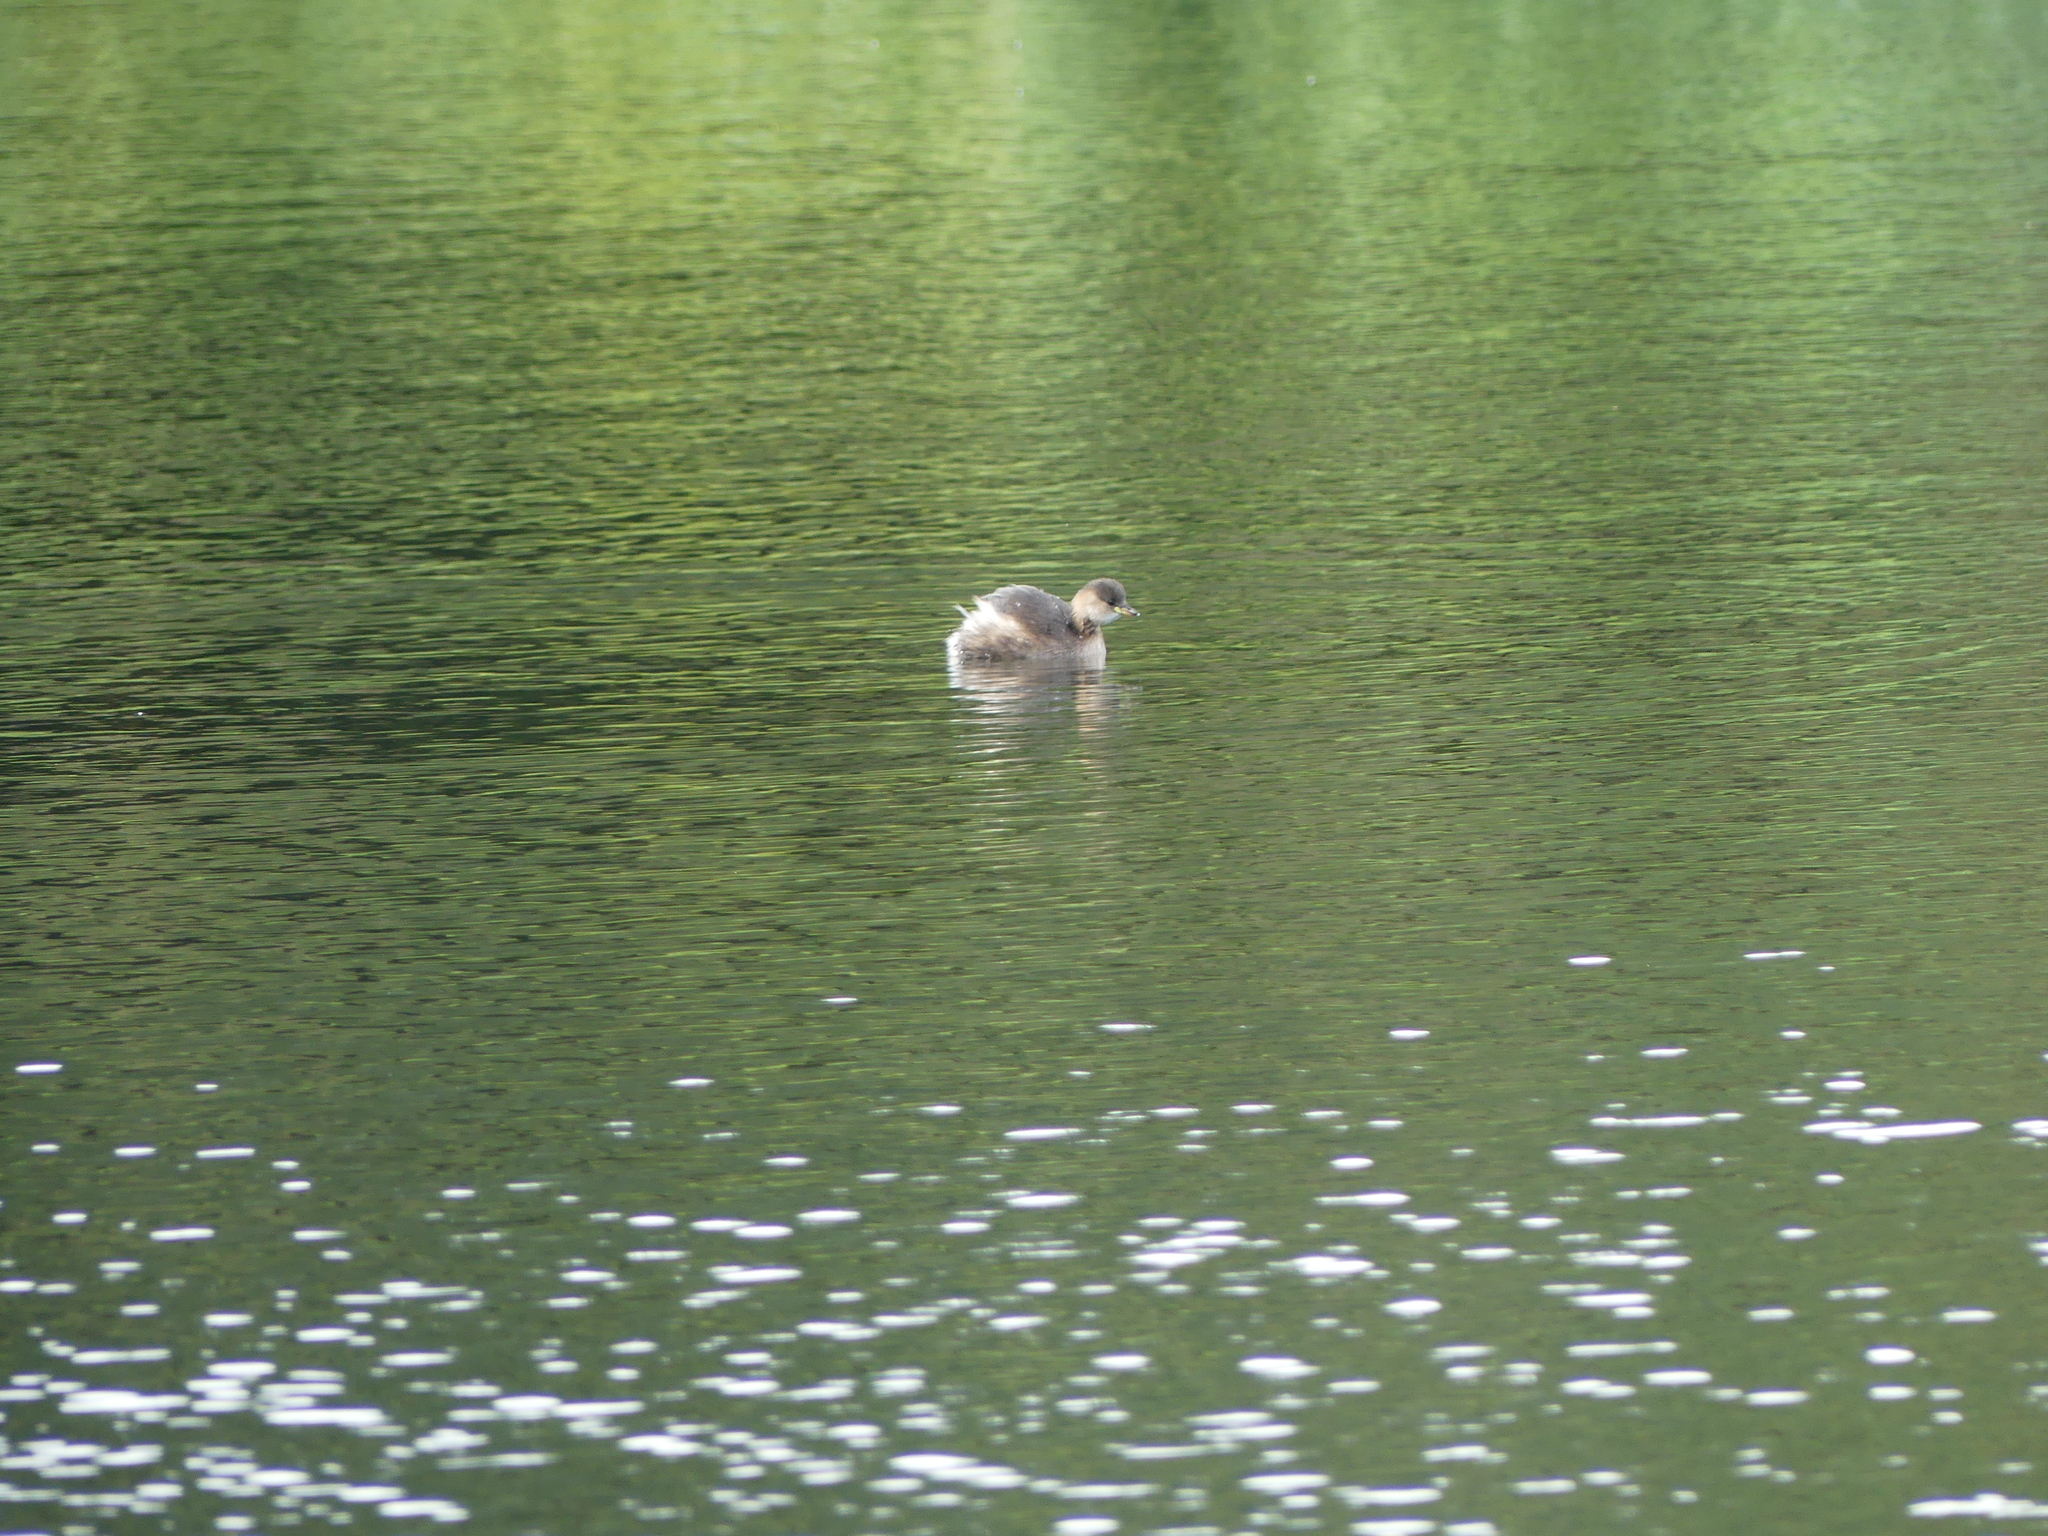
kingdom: Animalia
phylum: Chordata
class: Aves
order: Podicipediformes
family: Podicipedidae
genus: Tachybaptus
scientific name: Tachybaptus ruficollis
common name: Little grebe
